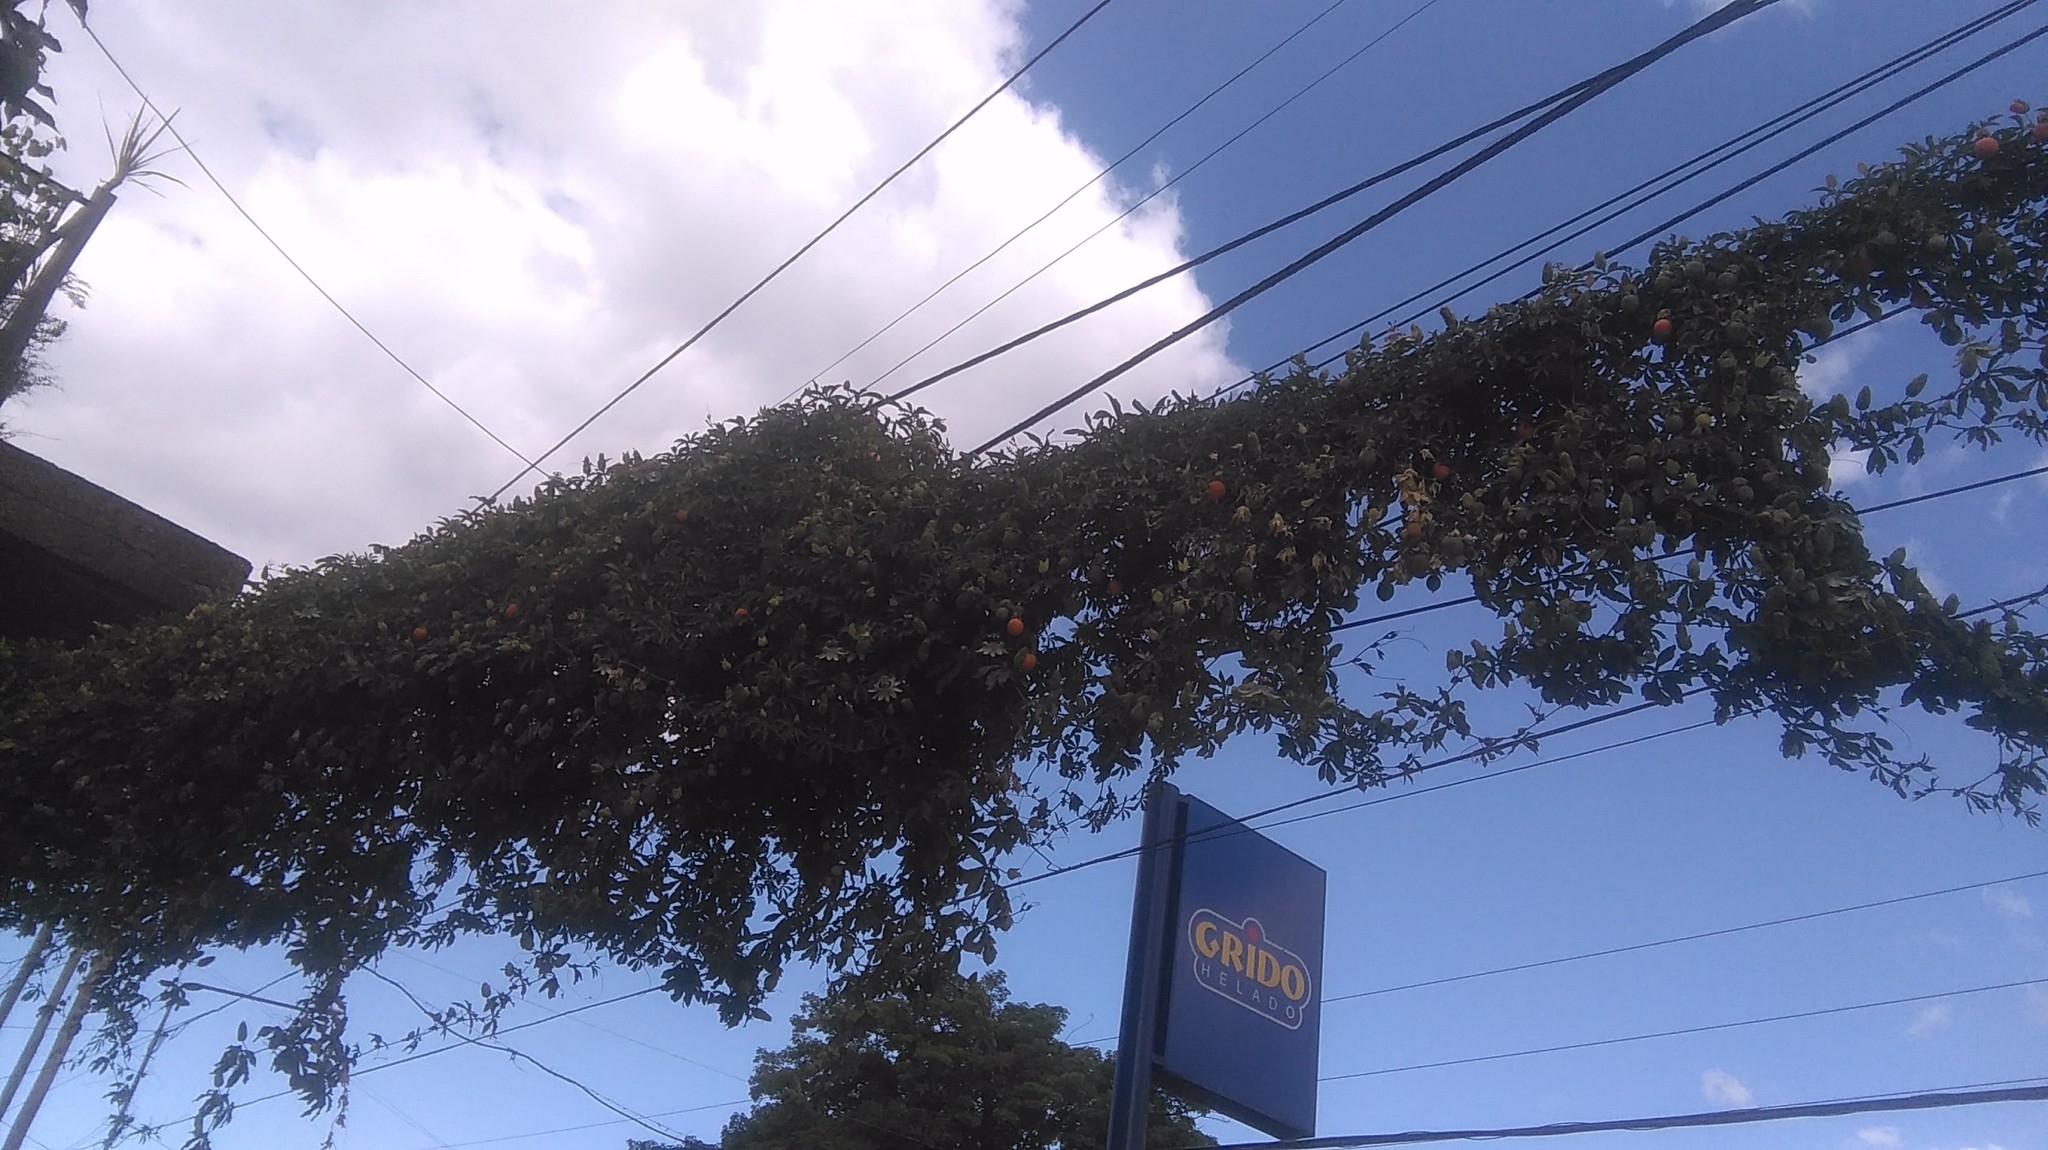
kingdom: Plantae
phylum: Tracheophyta
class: Magnoliopsida
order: Malpighiales
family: Passifloraceae
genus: Passiflora
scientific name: Passiflora caerulea
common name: Blue passionflower
